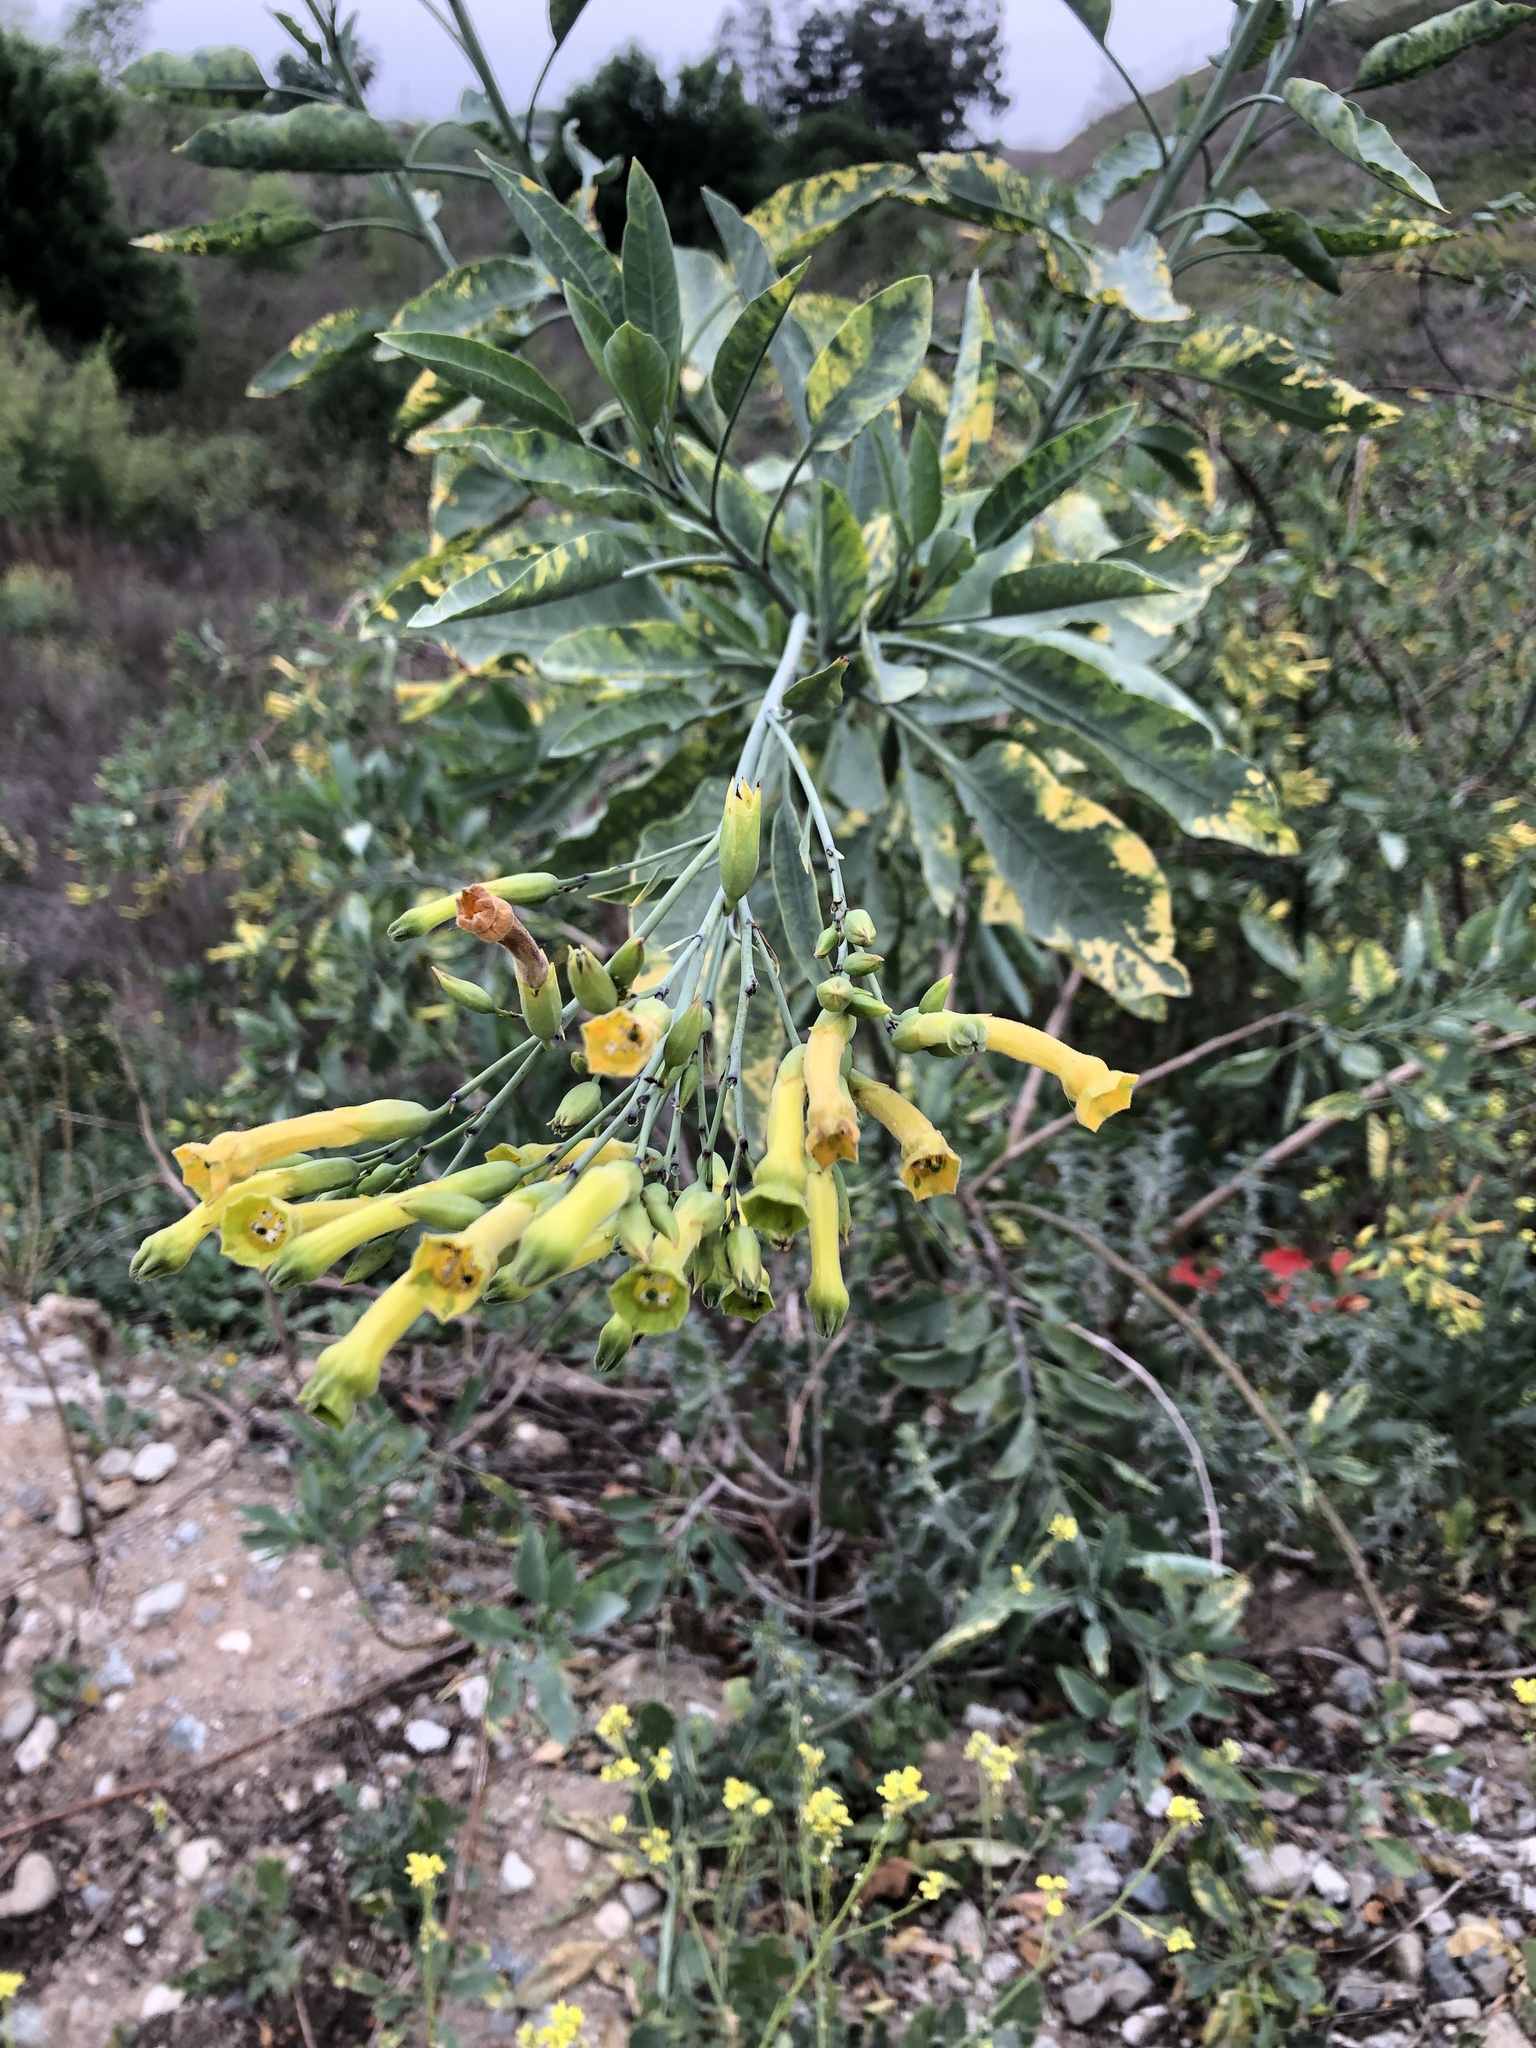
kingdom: Plantae
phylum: Tracheophyta
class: Magnoliopsida
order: Solanales
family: Solanaceae
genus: Nicotiana
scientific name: Nicotiana glauca
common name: Tree tobacco
